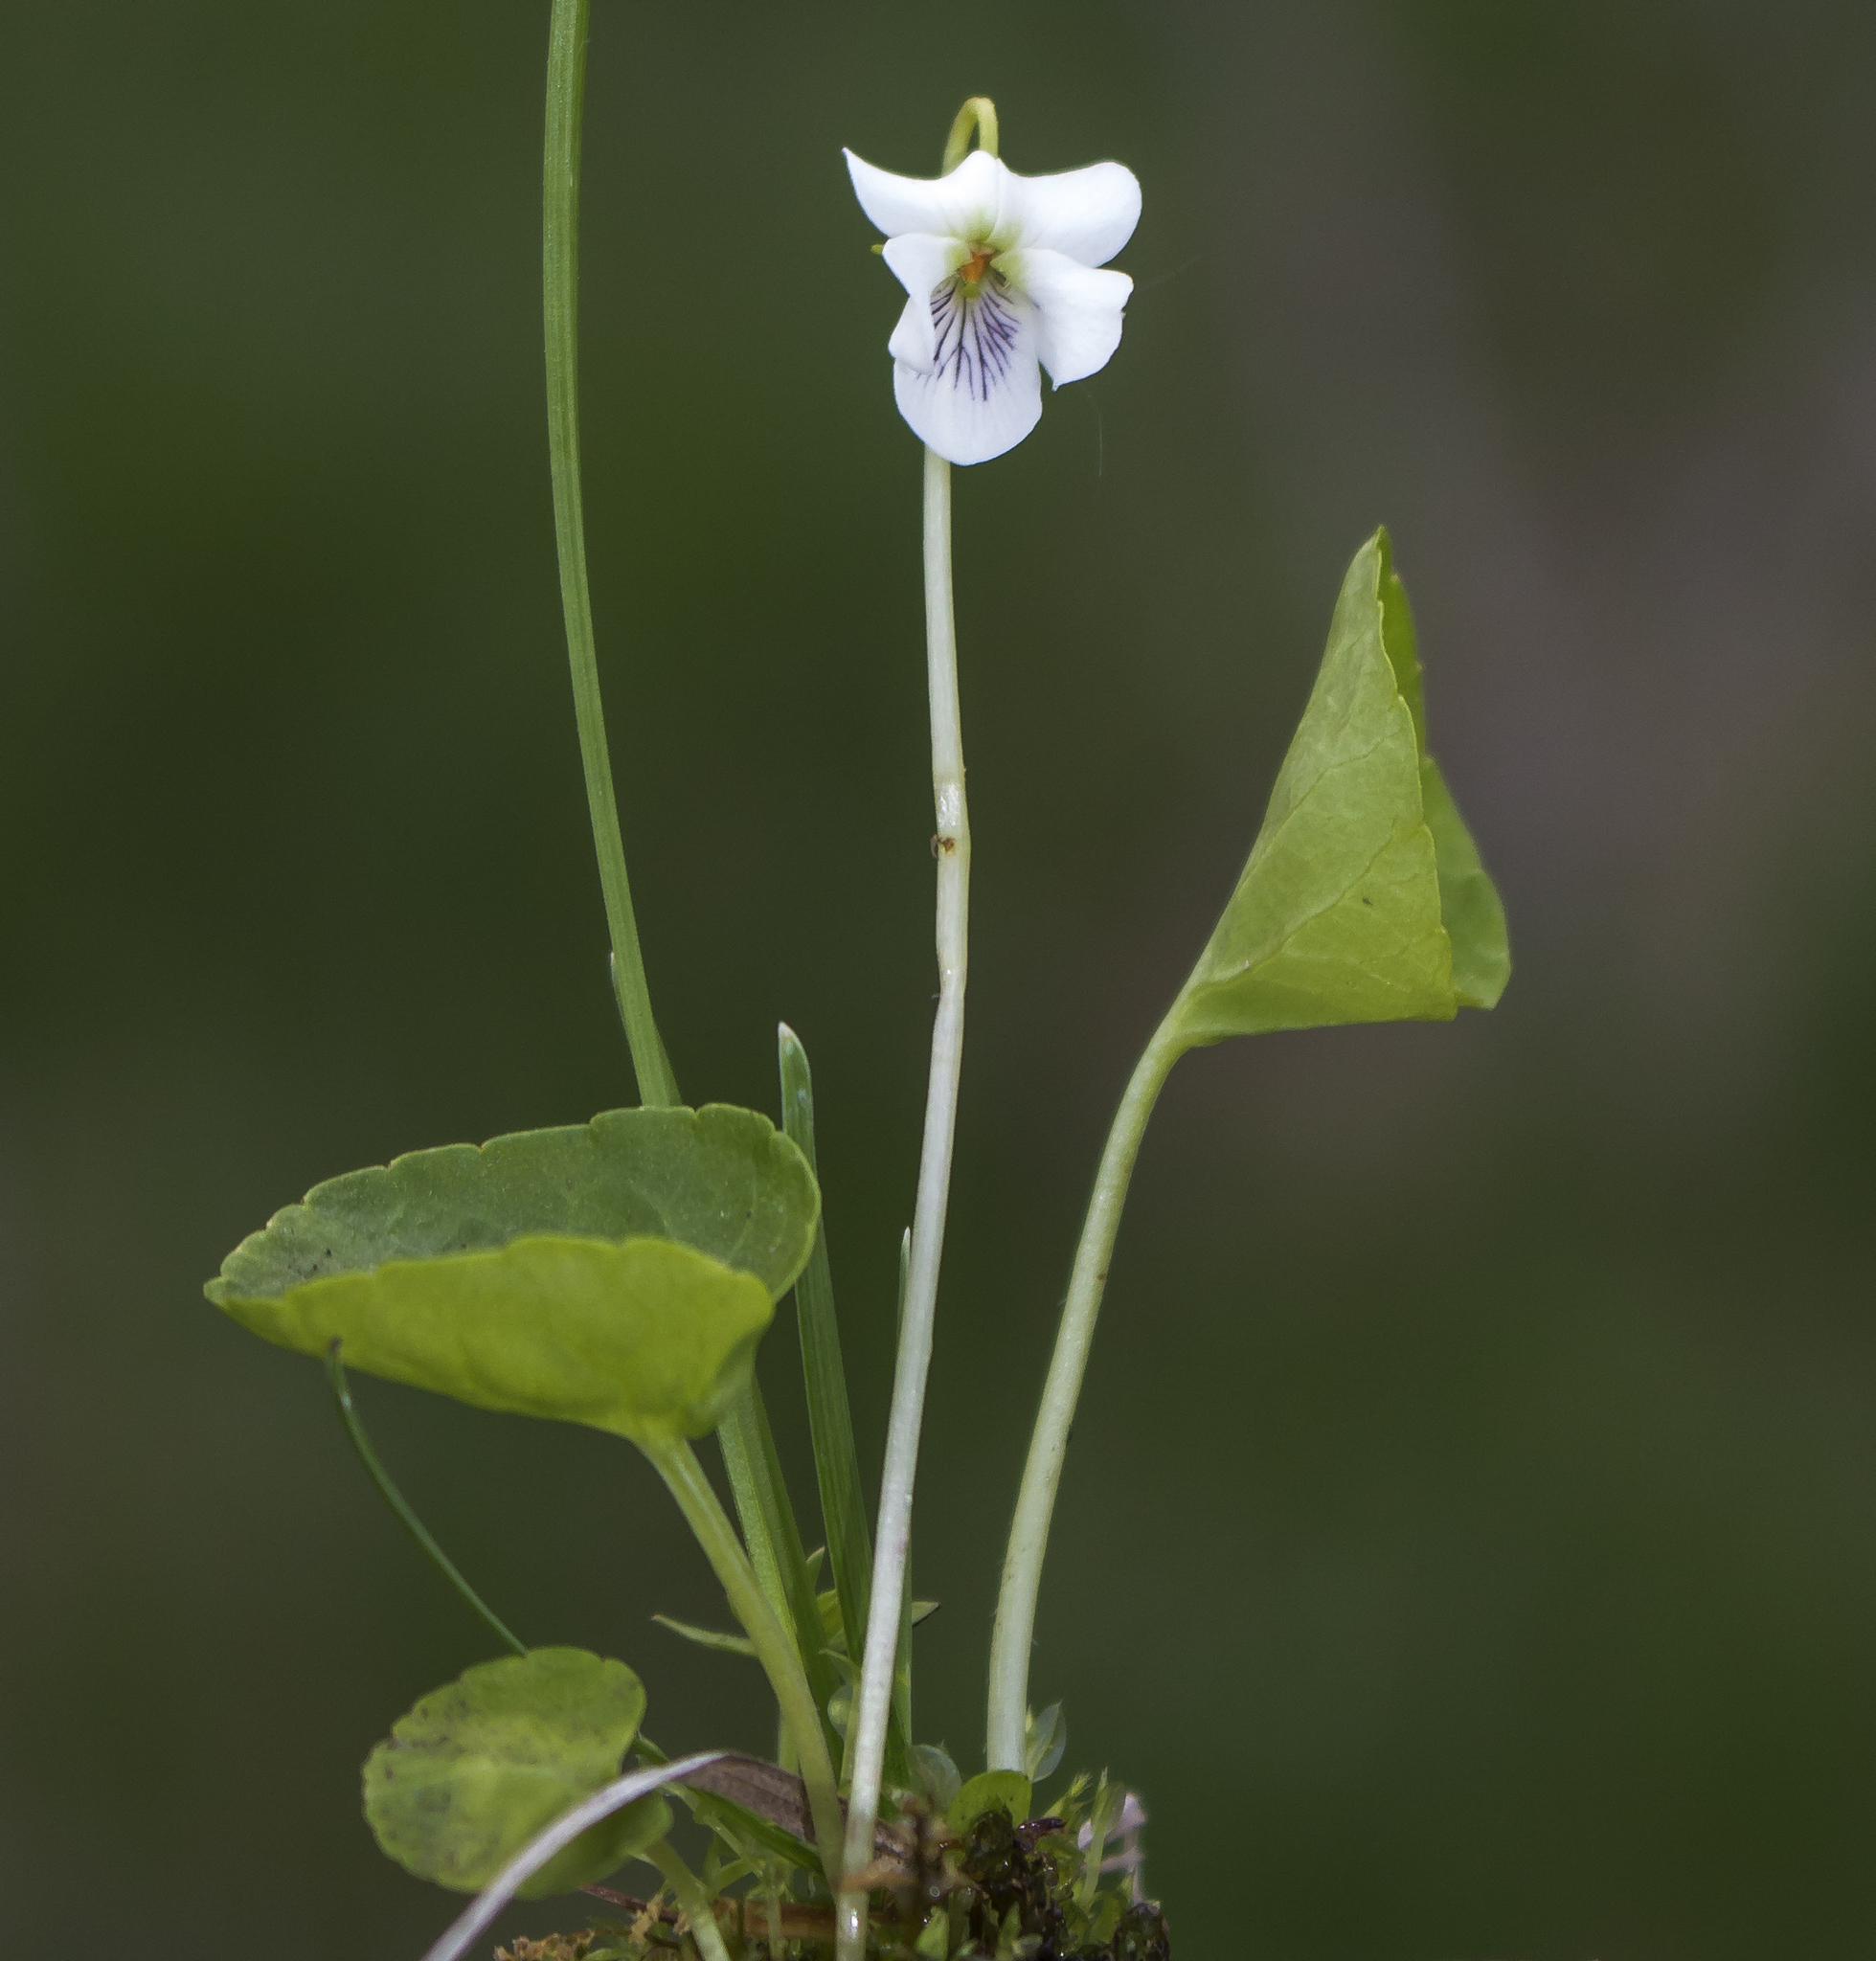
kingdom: Plantae
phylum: Tracheophyta
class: Magnoliopsida
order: Malpighiales
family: Violaceae
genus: Viola
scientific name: Viola minuscula
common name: Northern white violet
